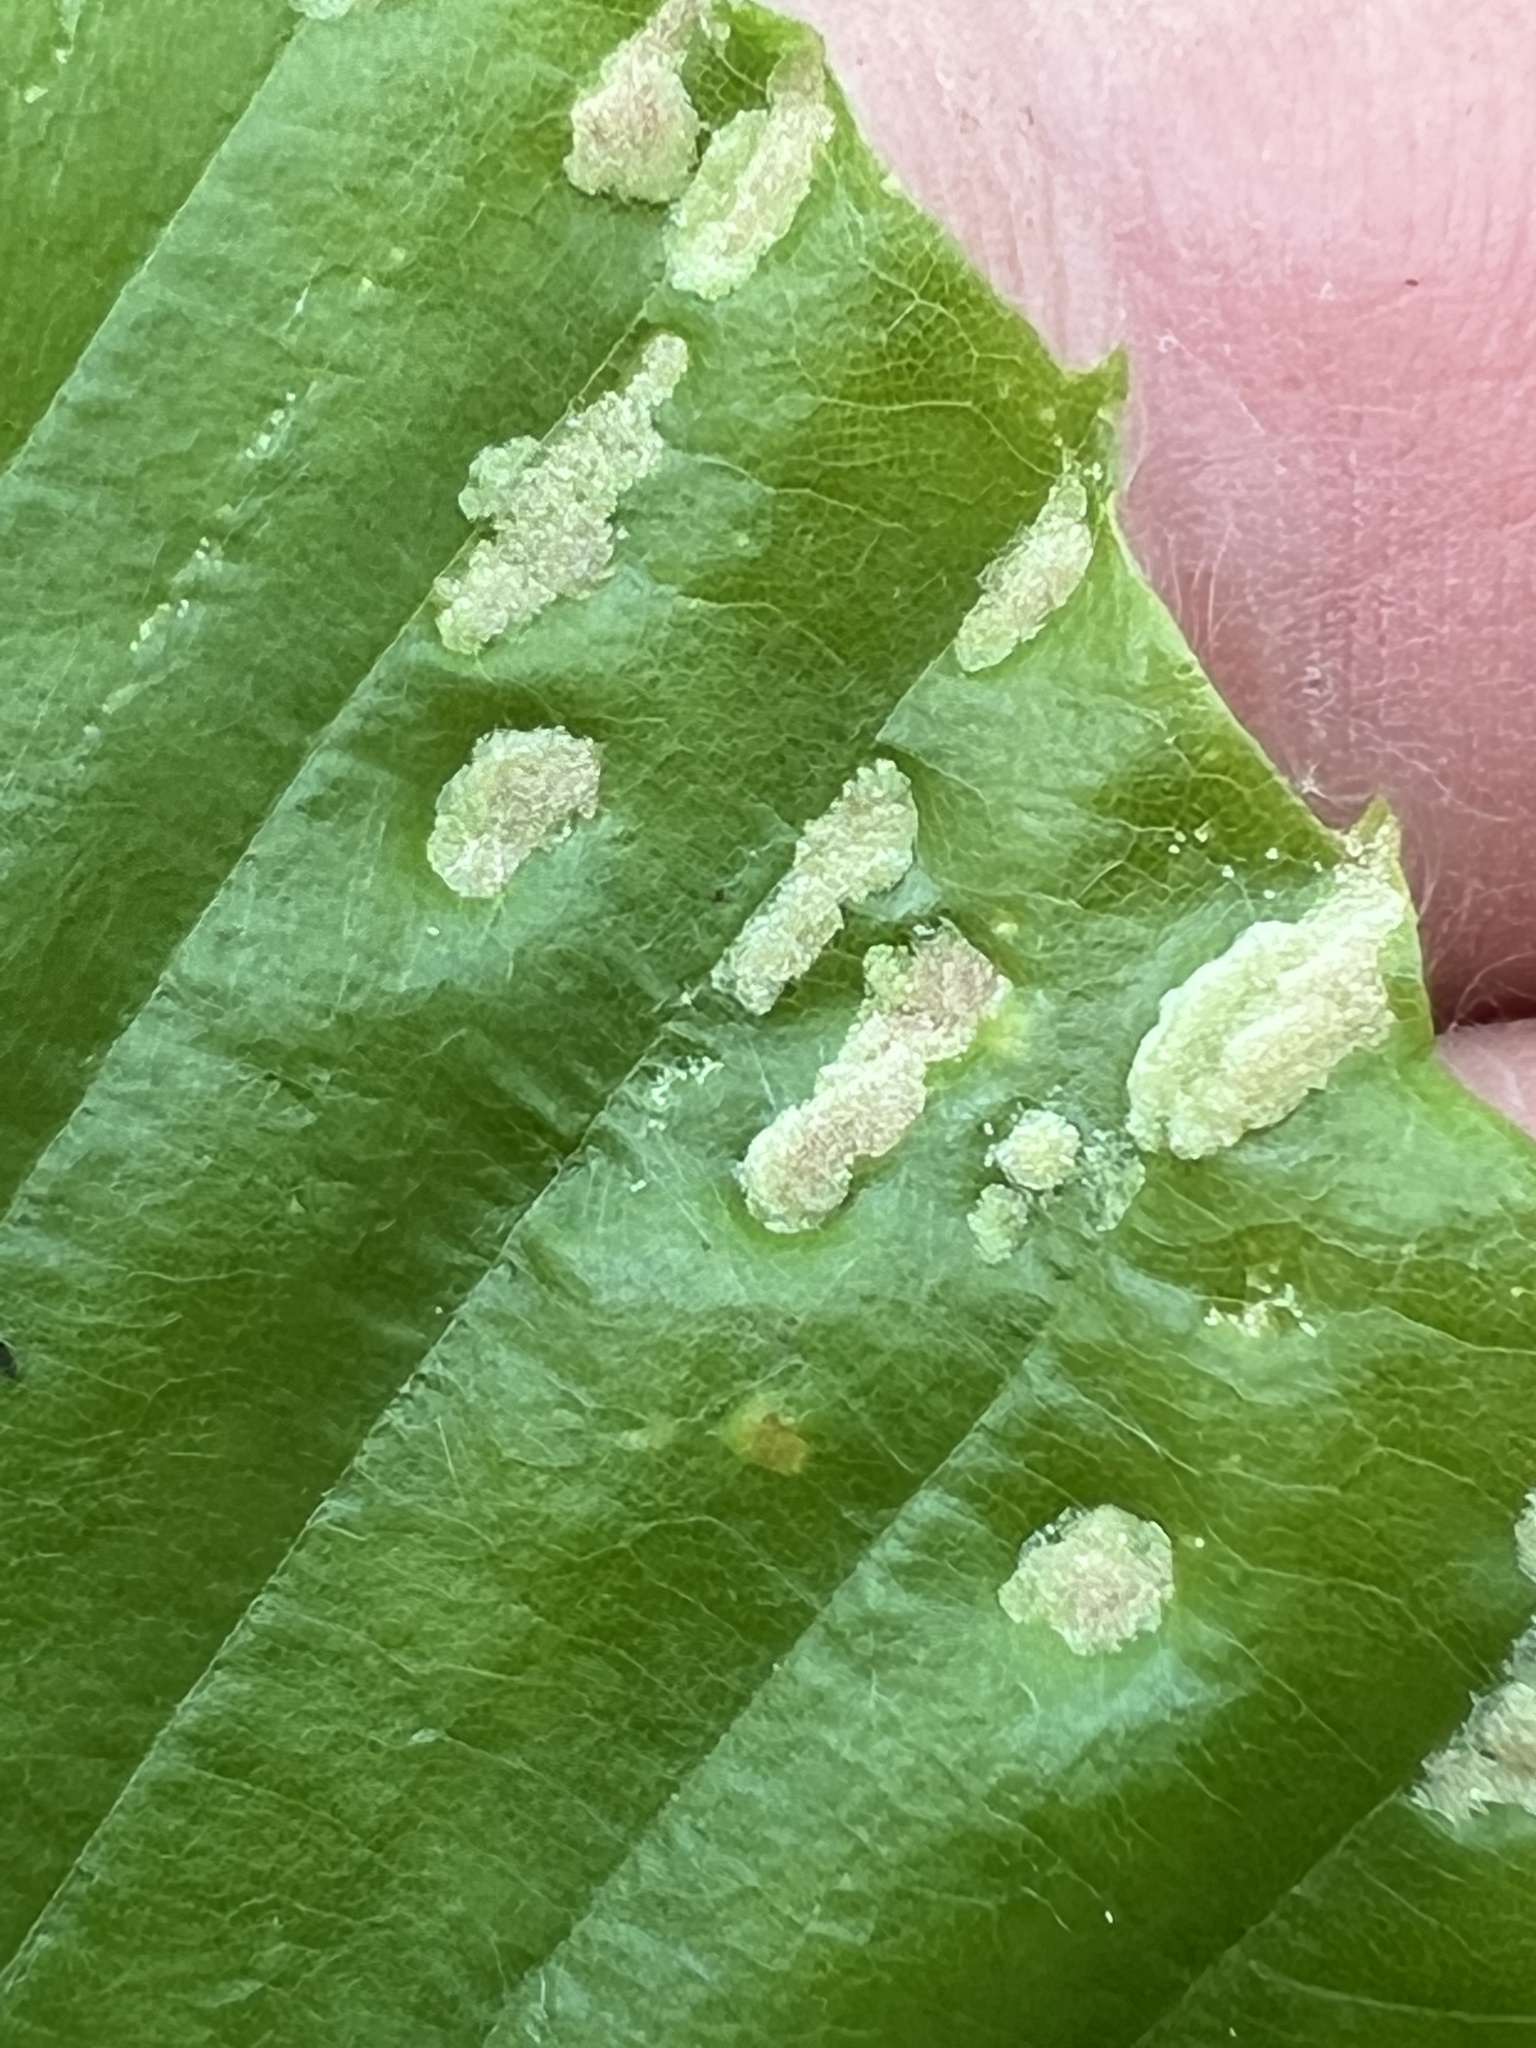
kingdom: Animalia
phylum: Arthropoda
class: Arachnida
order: Trombidiformes
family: Eriophyidae
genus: Acalitus
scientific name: Acalitus
